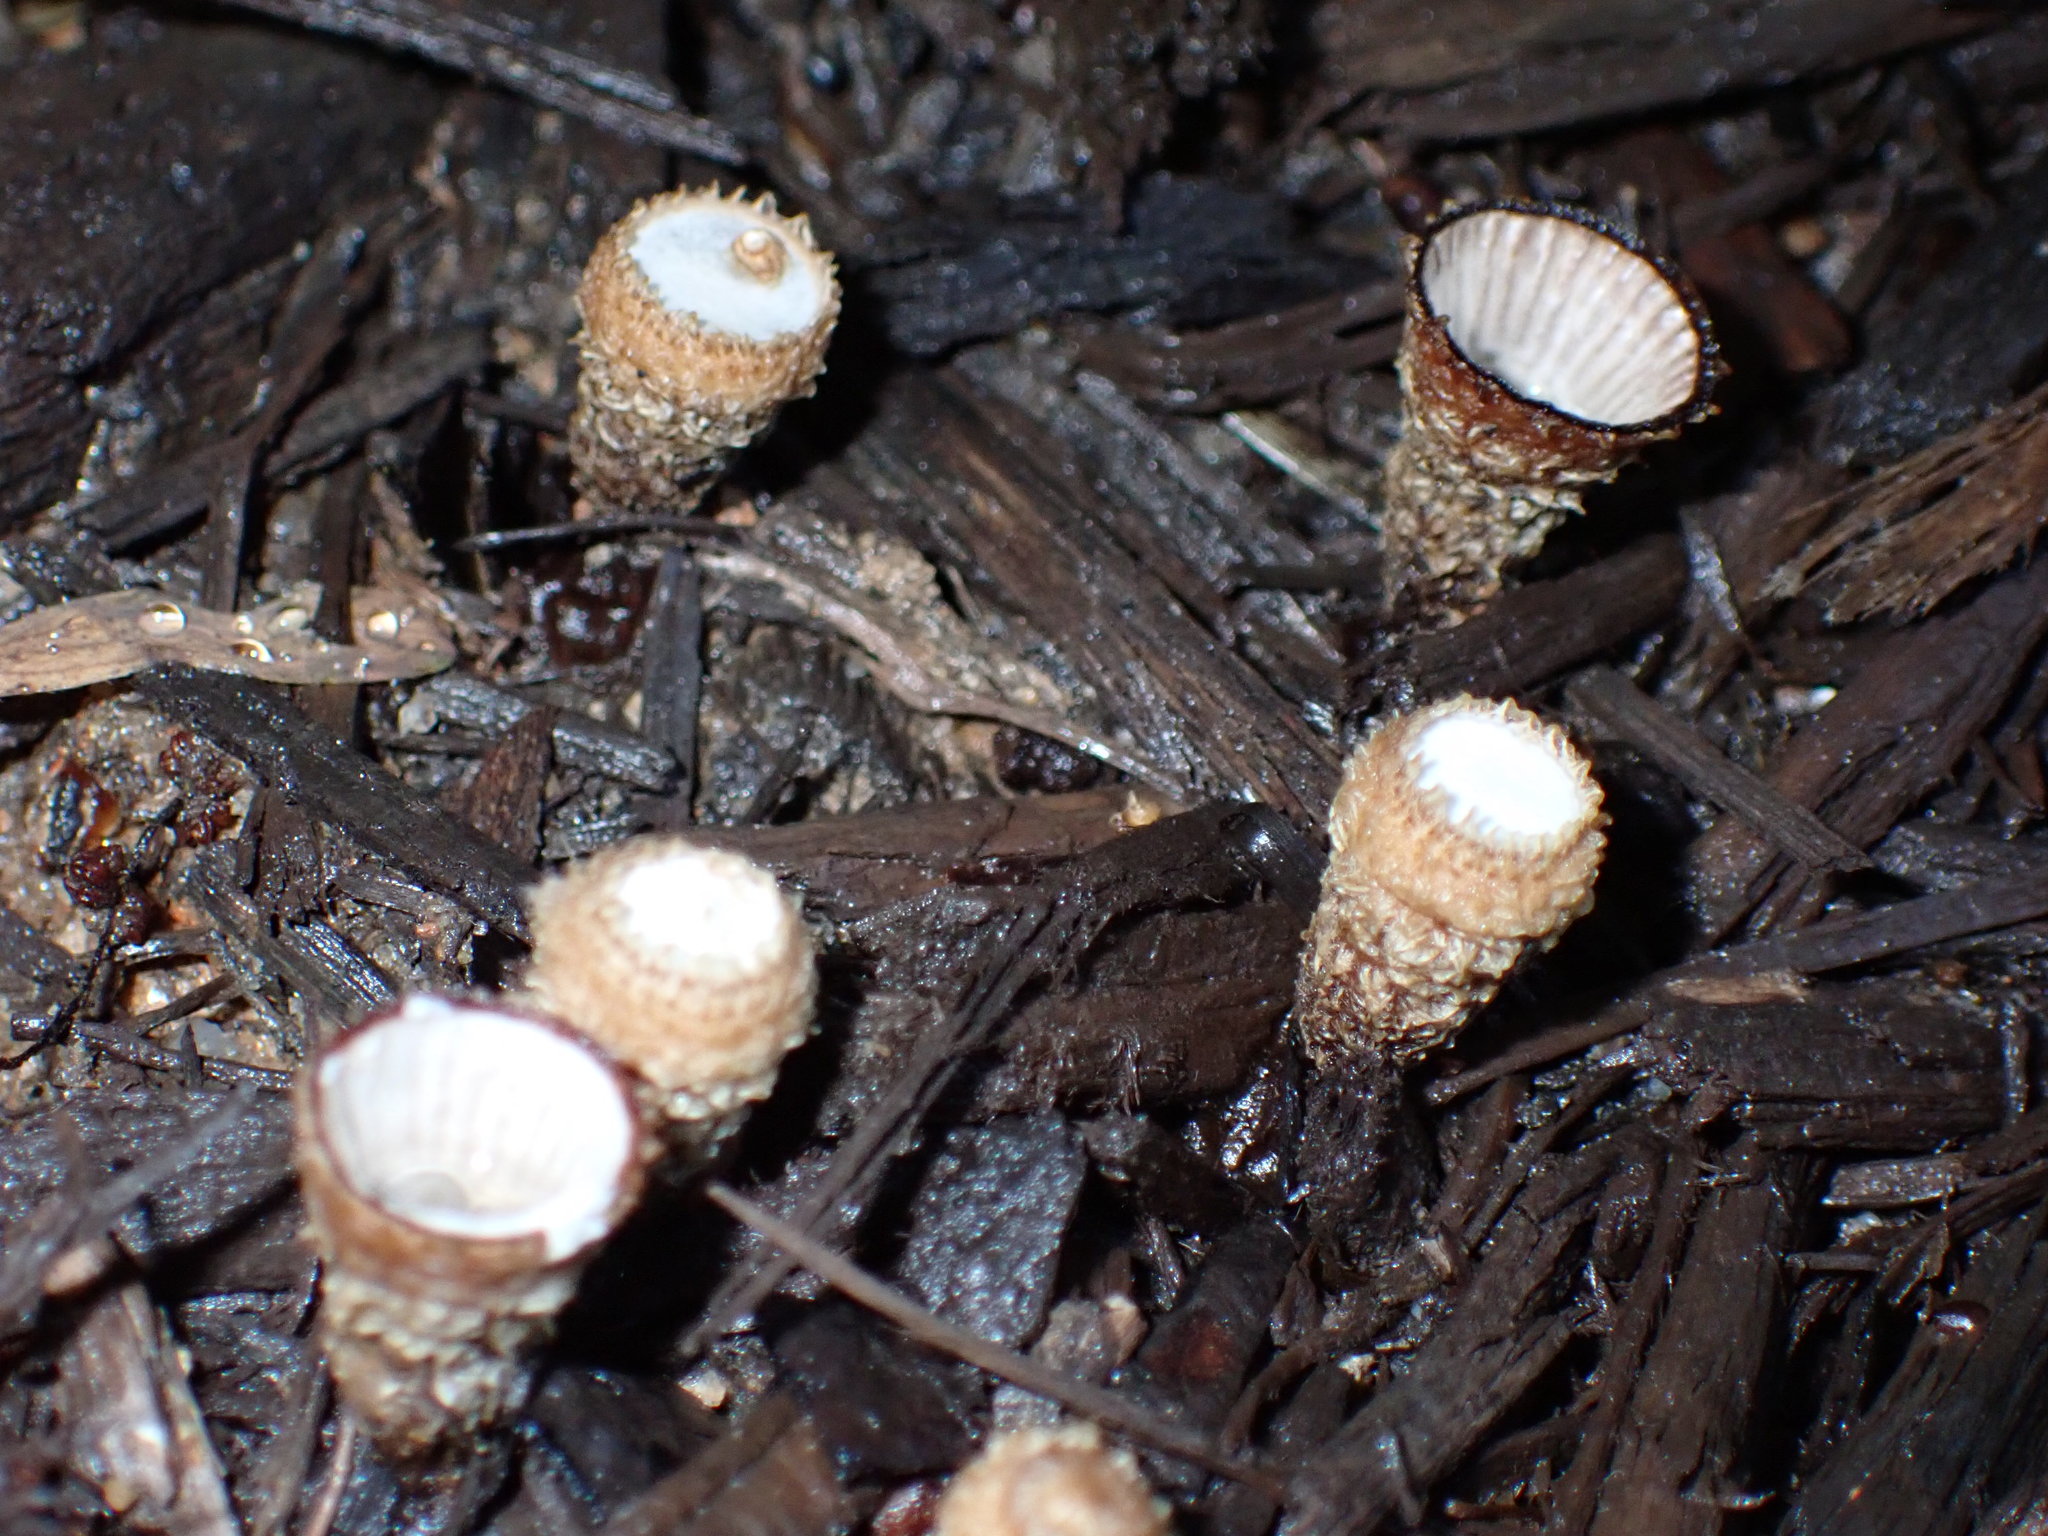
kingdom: Fungi
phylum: Basidiomycota
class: Agaricomycetes
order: Agaricales
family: Agaricaceae
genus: Cyathus
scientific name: Cyathus striatus
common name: Fluted bird's nest
